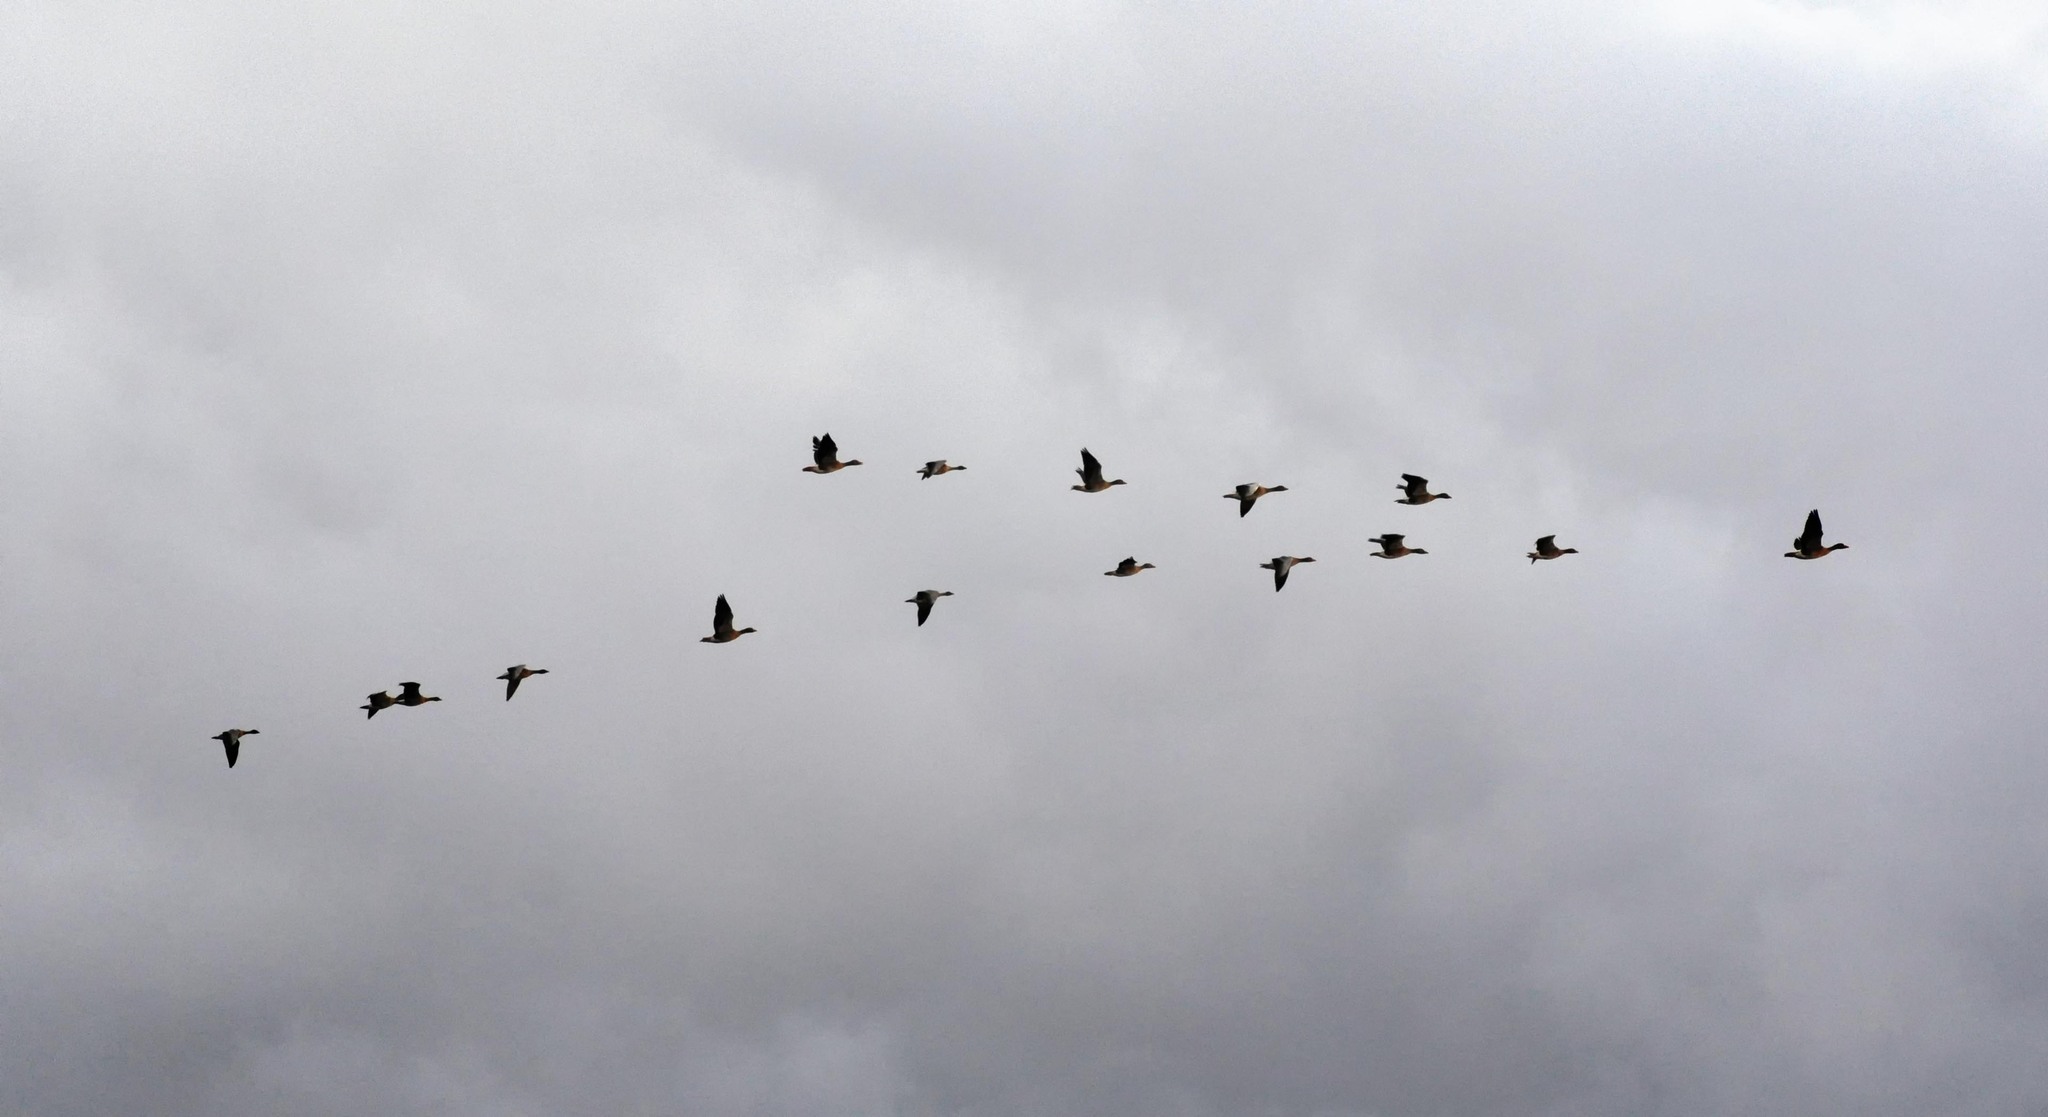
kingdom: Animalia
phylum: Chordata
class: Aves
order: Anseriformes
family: Anatidae
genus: Anser
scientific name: Anser brachyrhynchus
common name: Pink-footed goose
